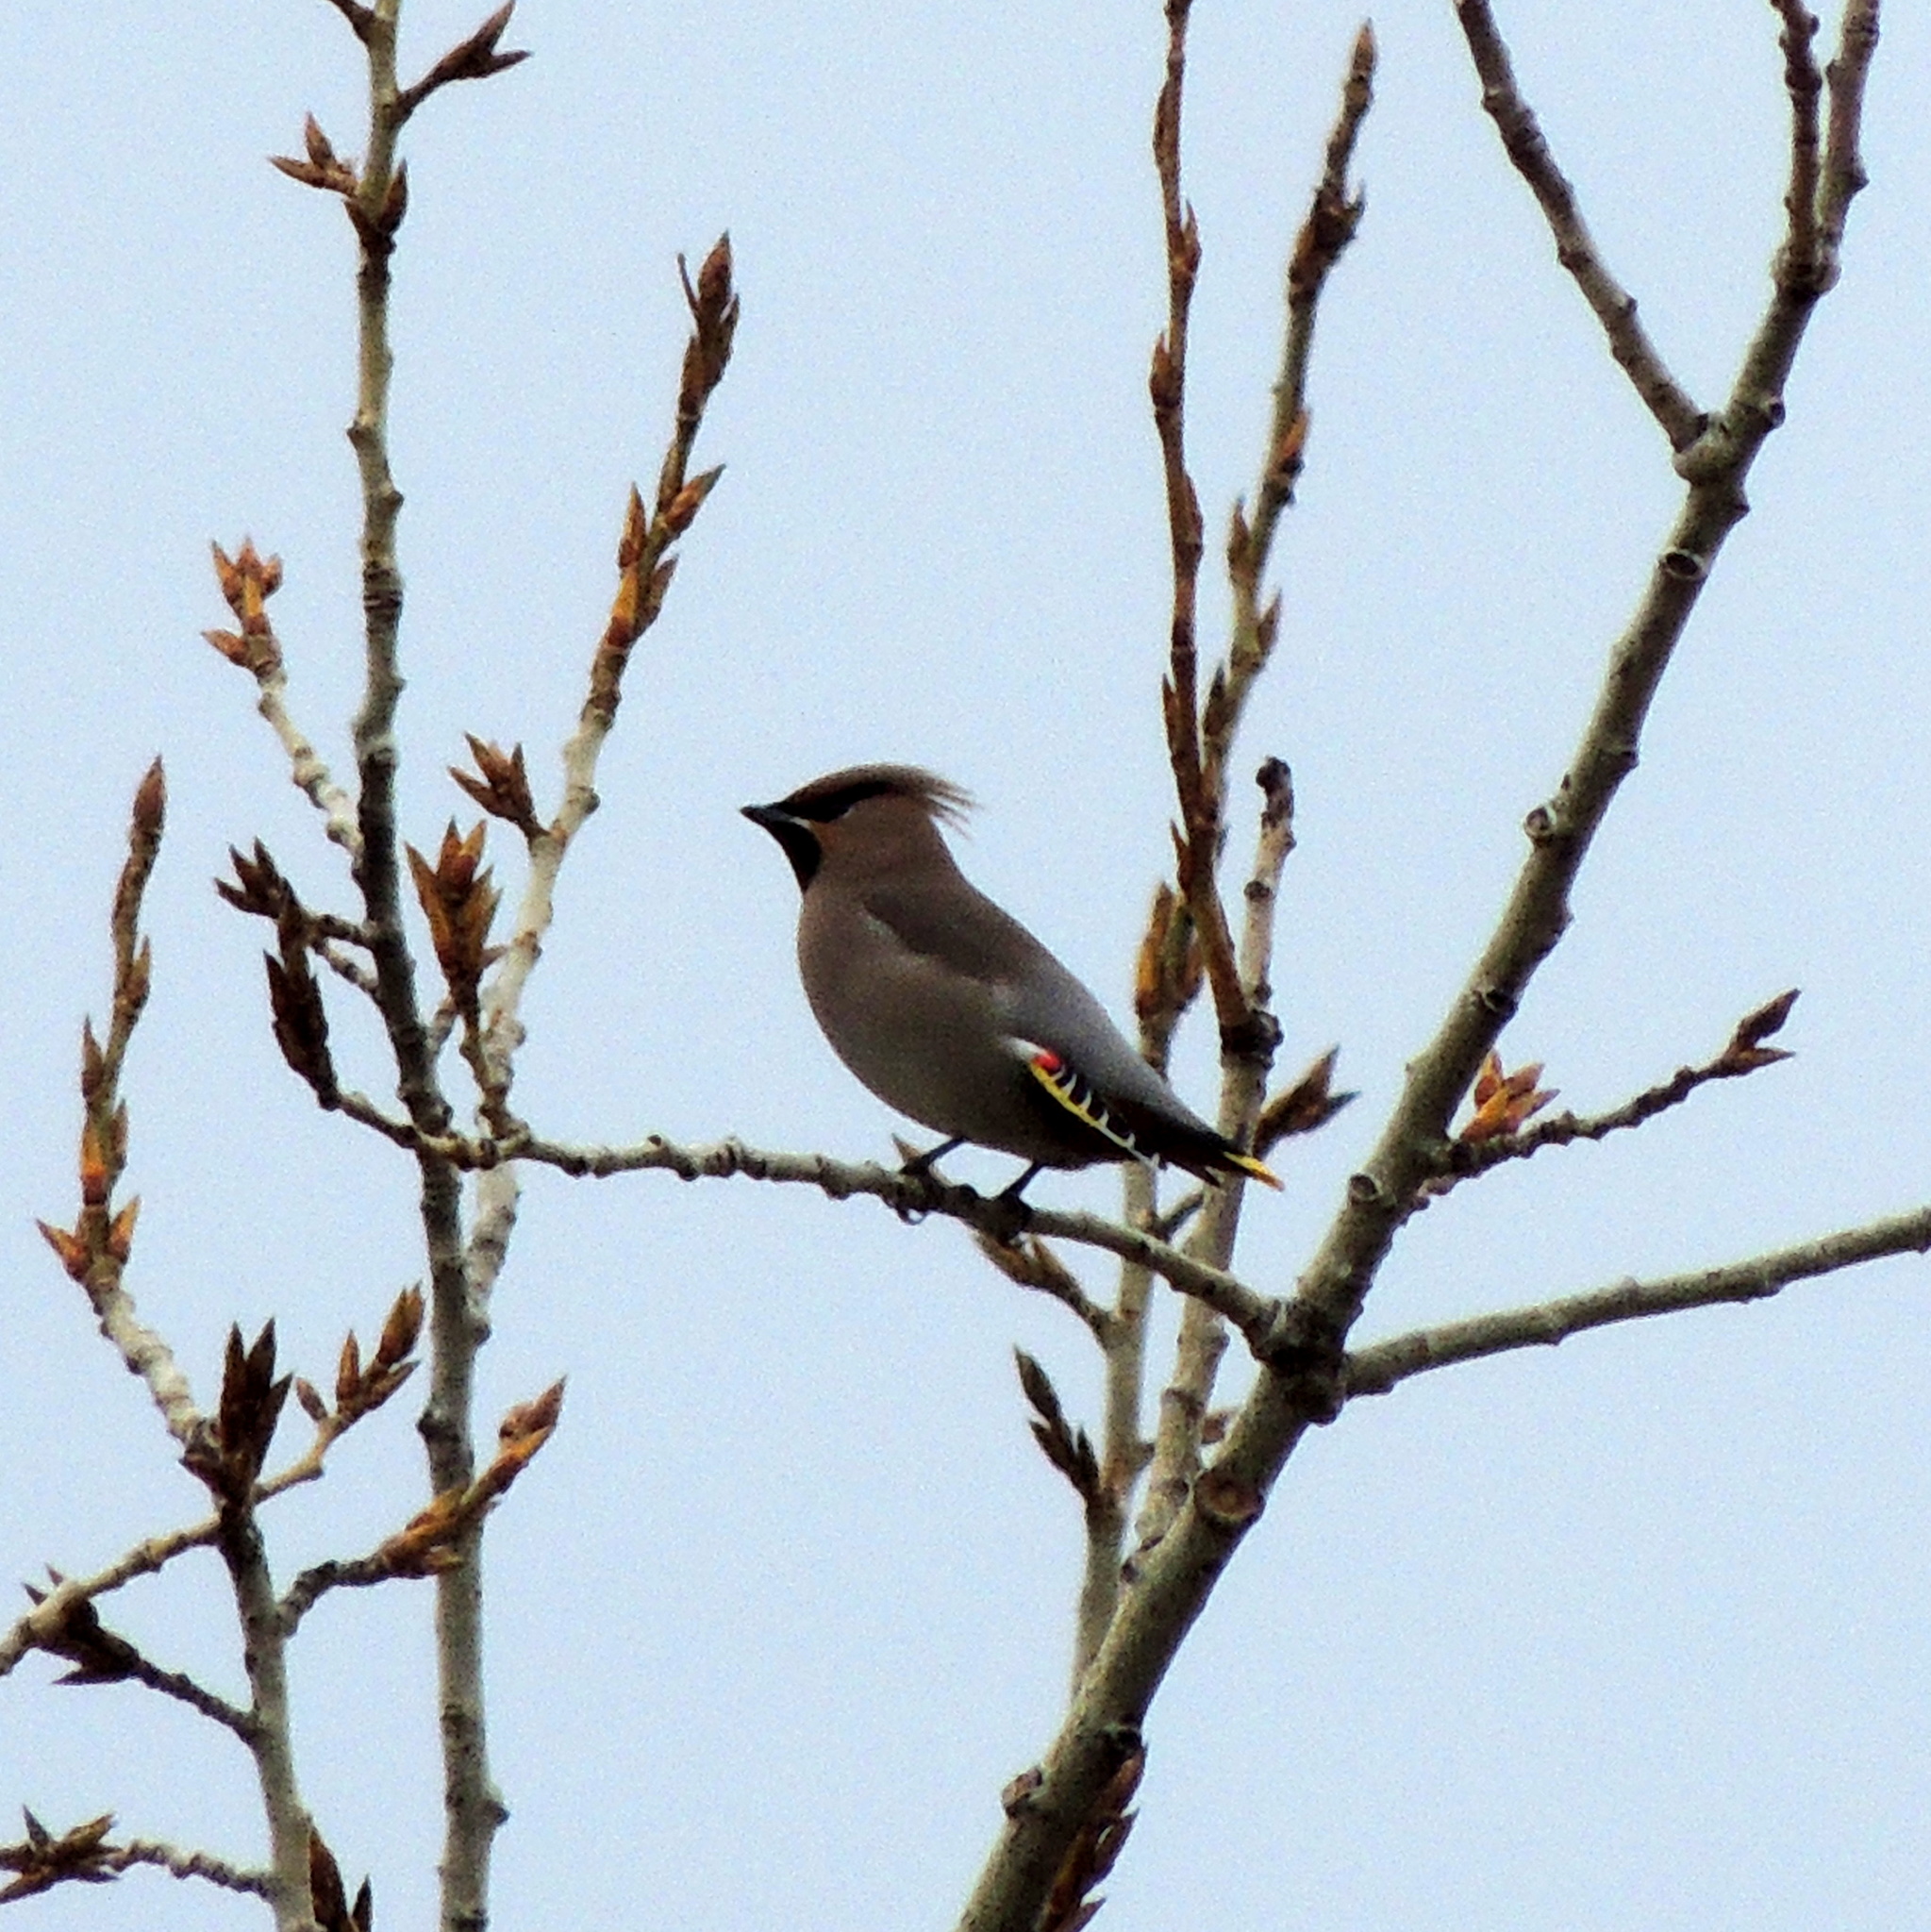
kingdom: Animalia
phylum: Chordata
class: Aves
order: Passeriformes
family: Bombycillidae
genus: Bombycilla
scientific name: Bombycilla garrulus
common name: Bohemian waxwing
